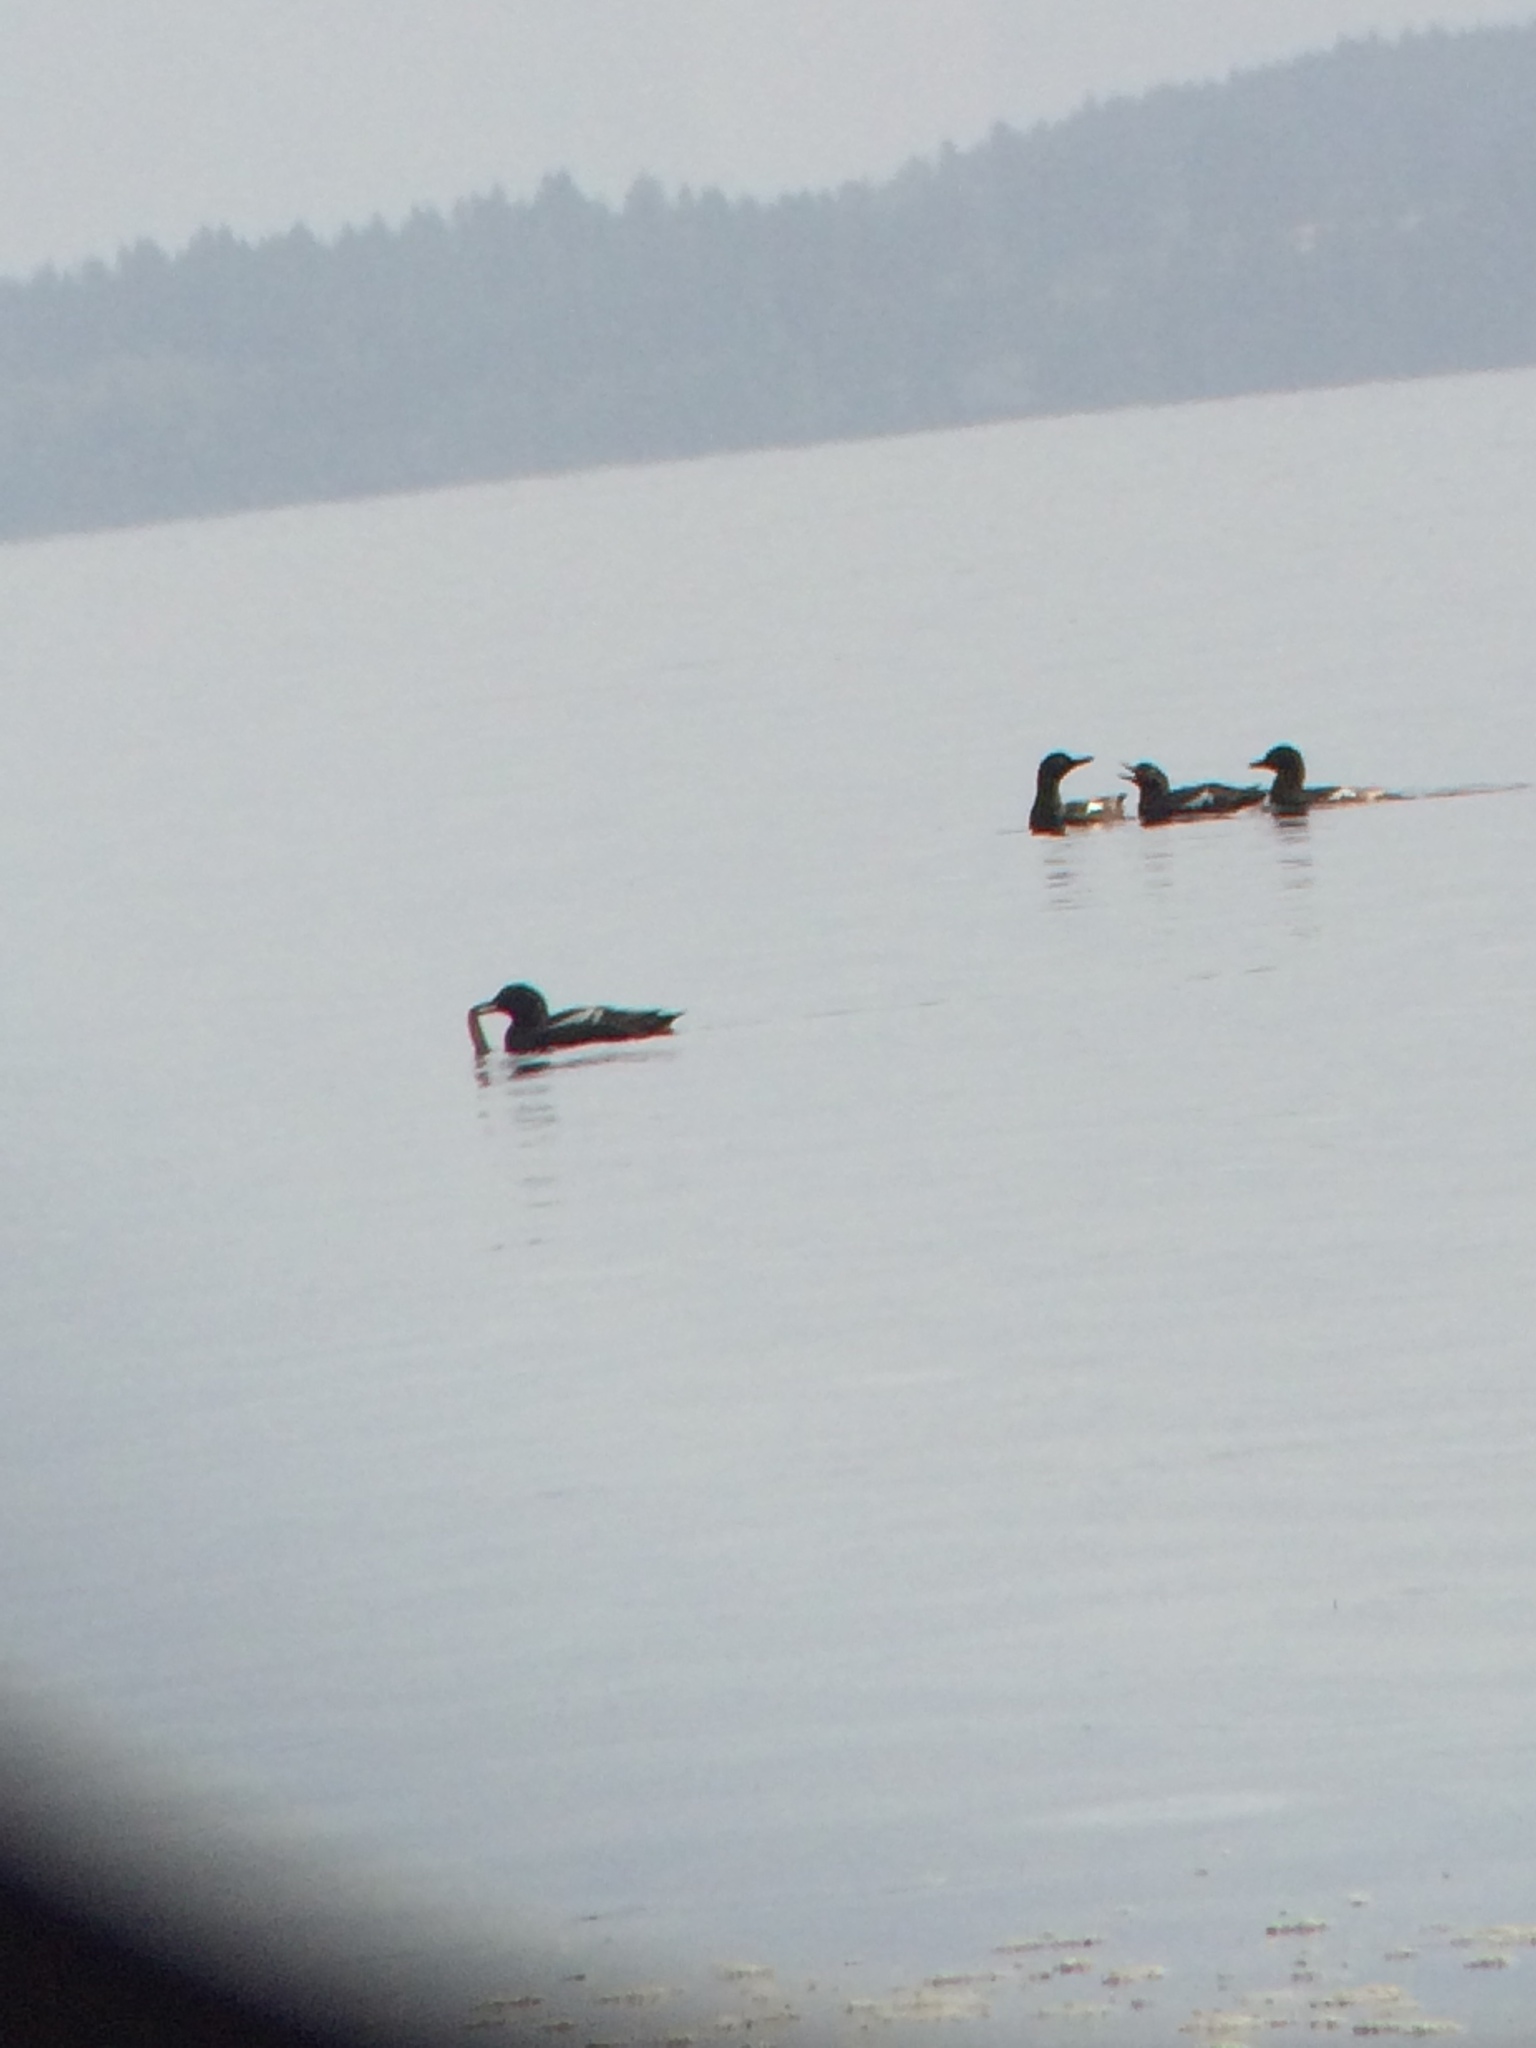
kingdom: Animalia
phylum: Chordata
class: Aves
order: Charadriiformes
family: Alcidae
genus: Cepphus
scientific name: Cepphus columba
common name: Pigeon guillemot
